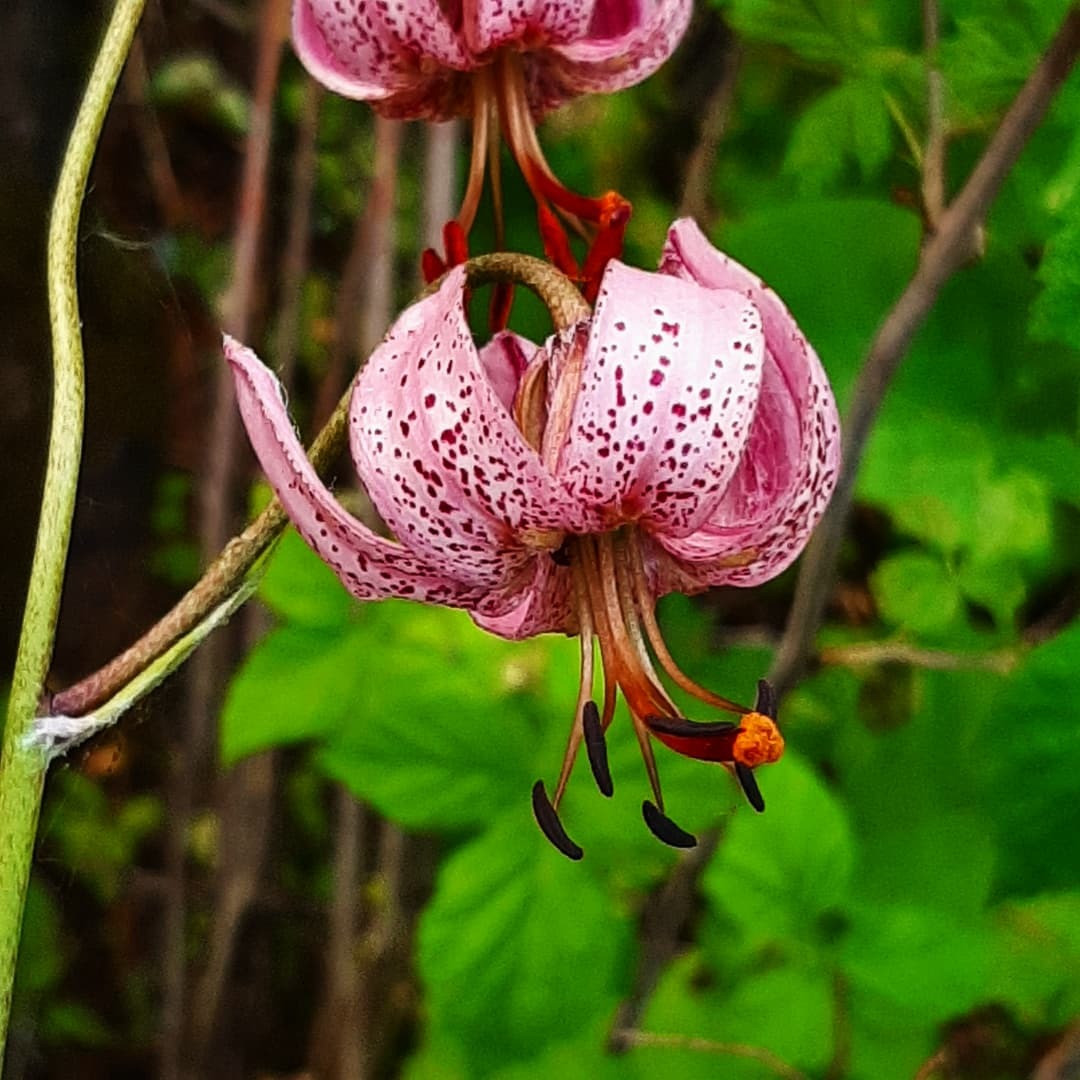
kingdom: Plantae
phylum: Tracheophyta
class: Liliopsida
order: Liliales
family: Liliaceae
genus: Lilium
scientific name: Lilium martagon
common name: Martagon lily
